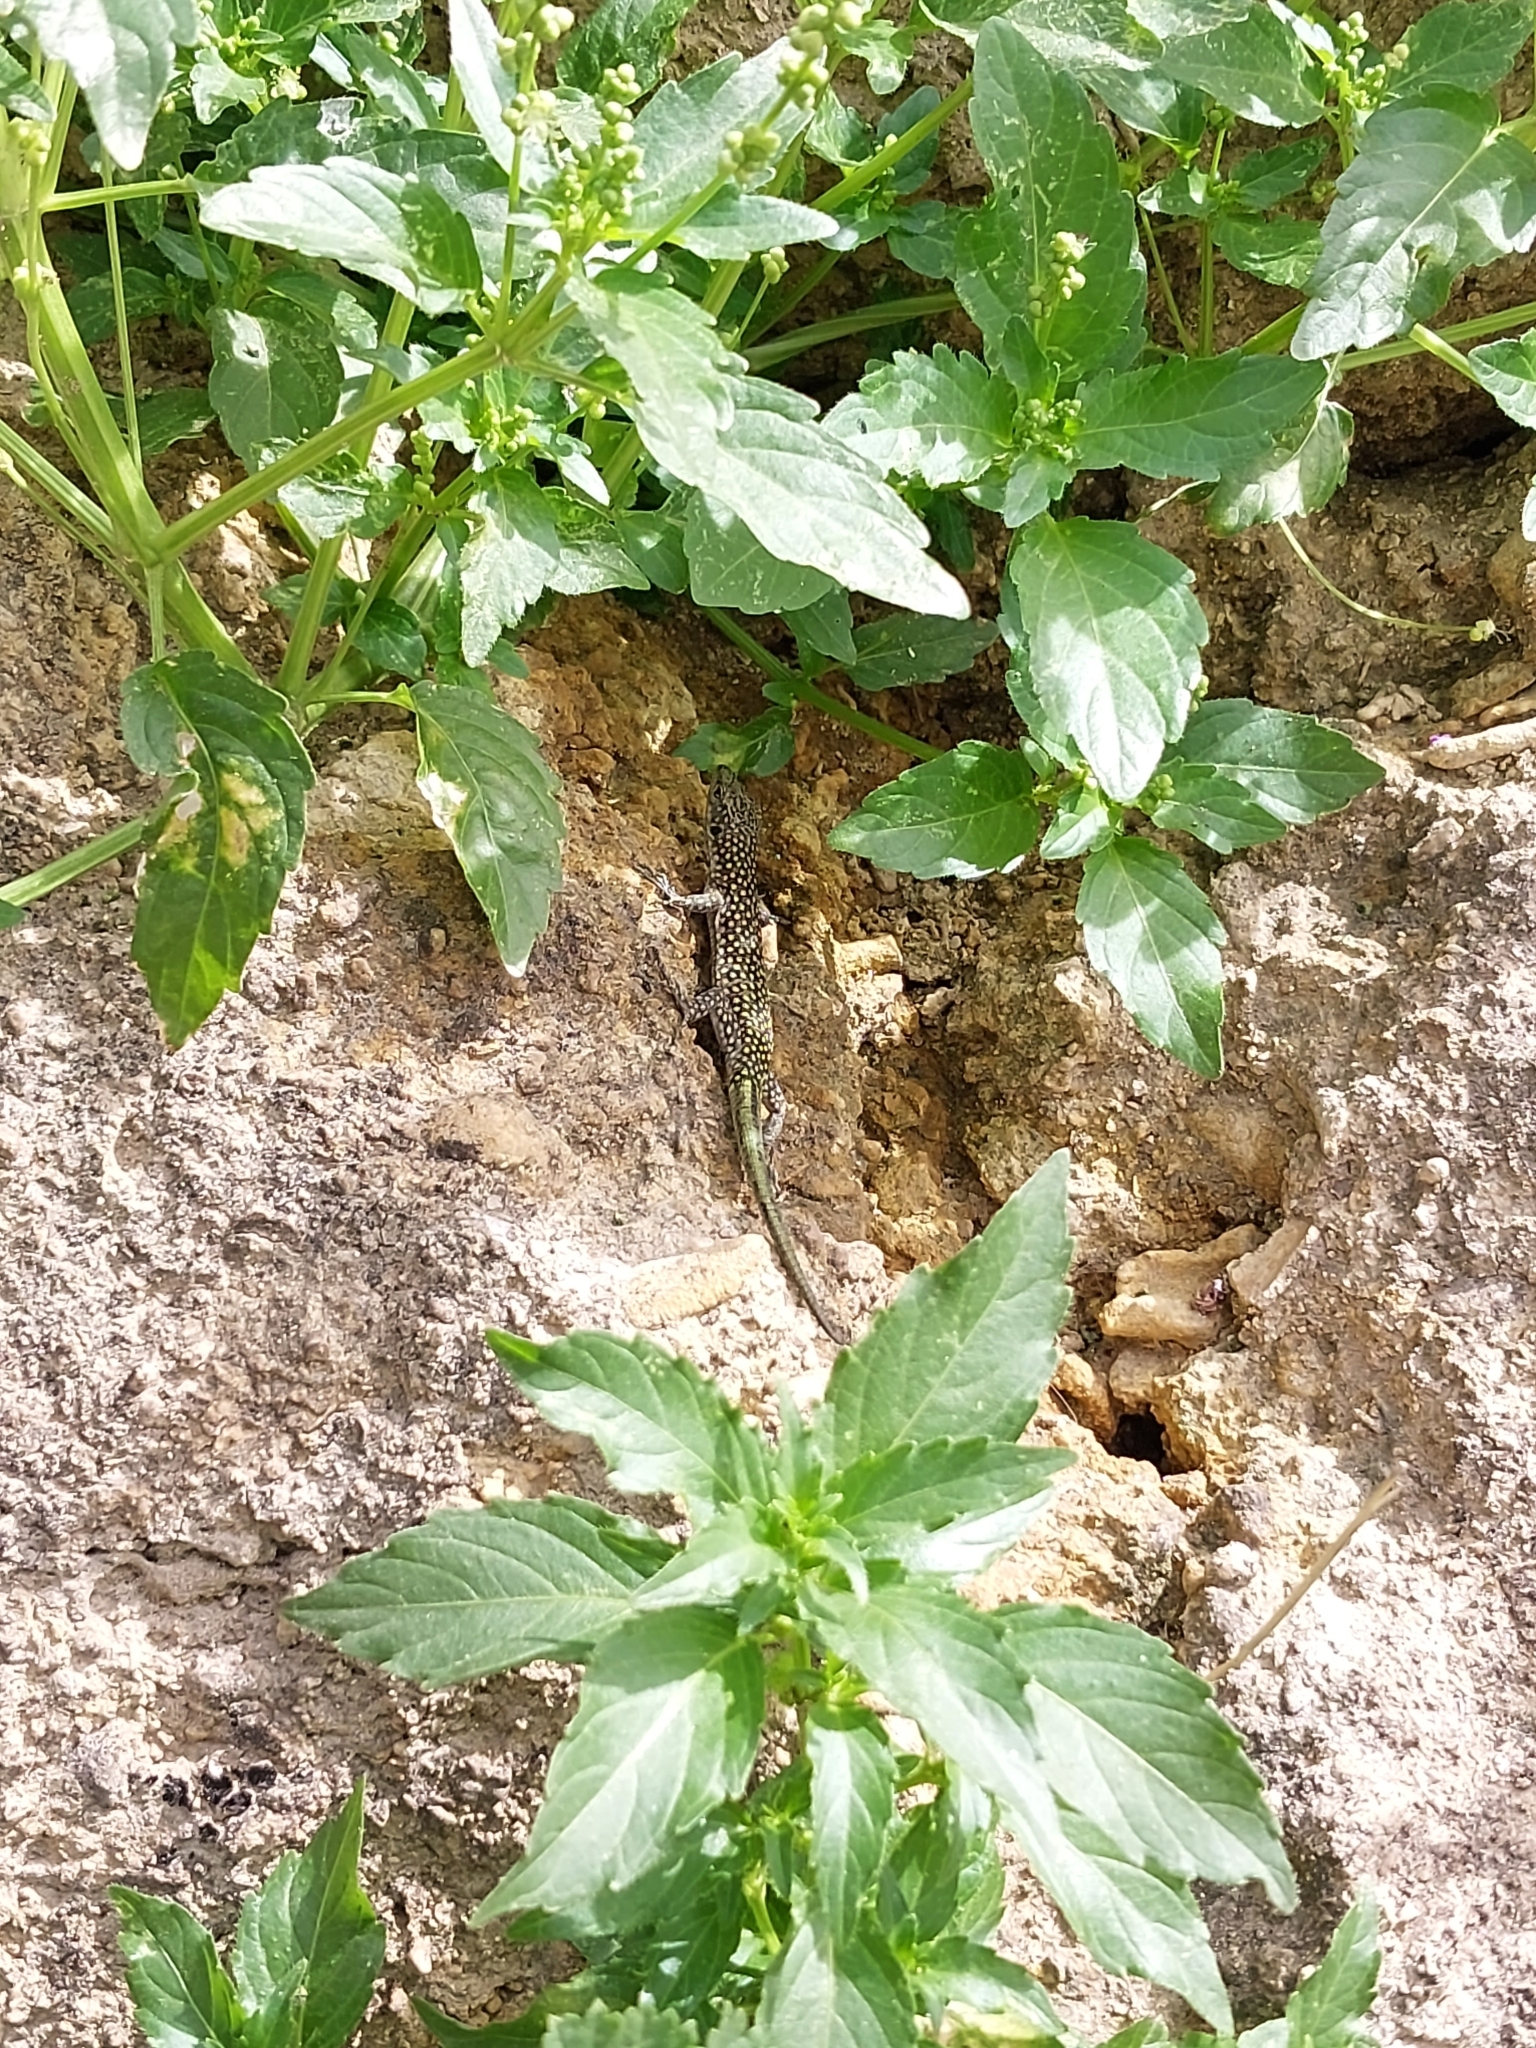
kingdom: Animalia
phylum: Chordata
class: Squamata
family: Lacertidae
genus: Scelarcis
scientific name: Scelarcis perspicillata
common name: Moroccan rock lizard
